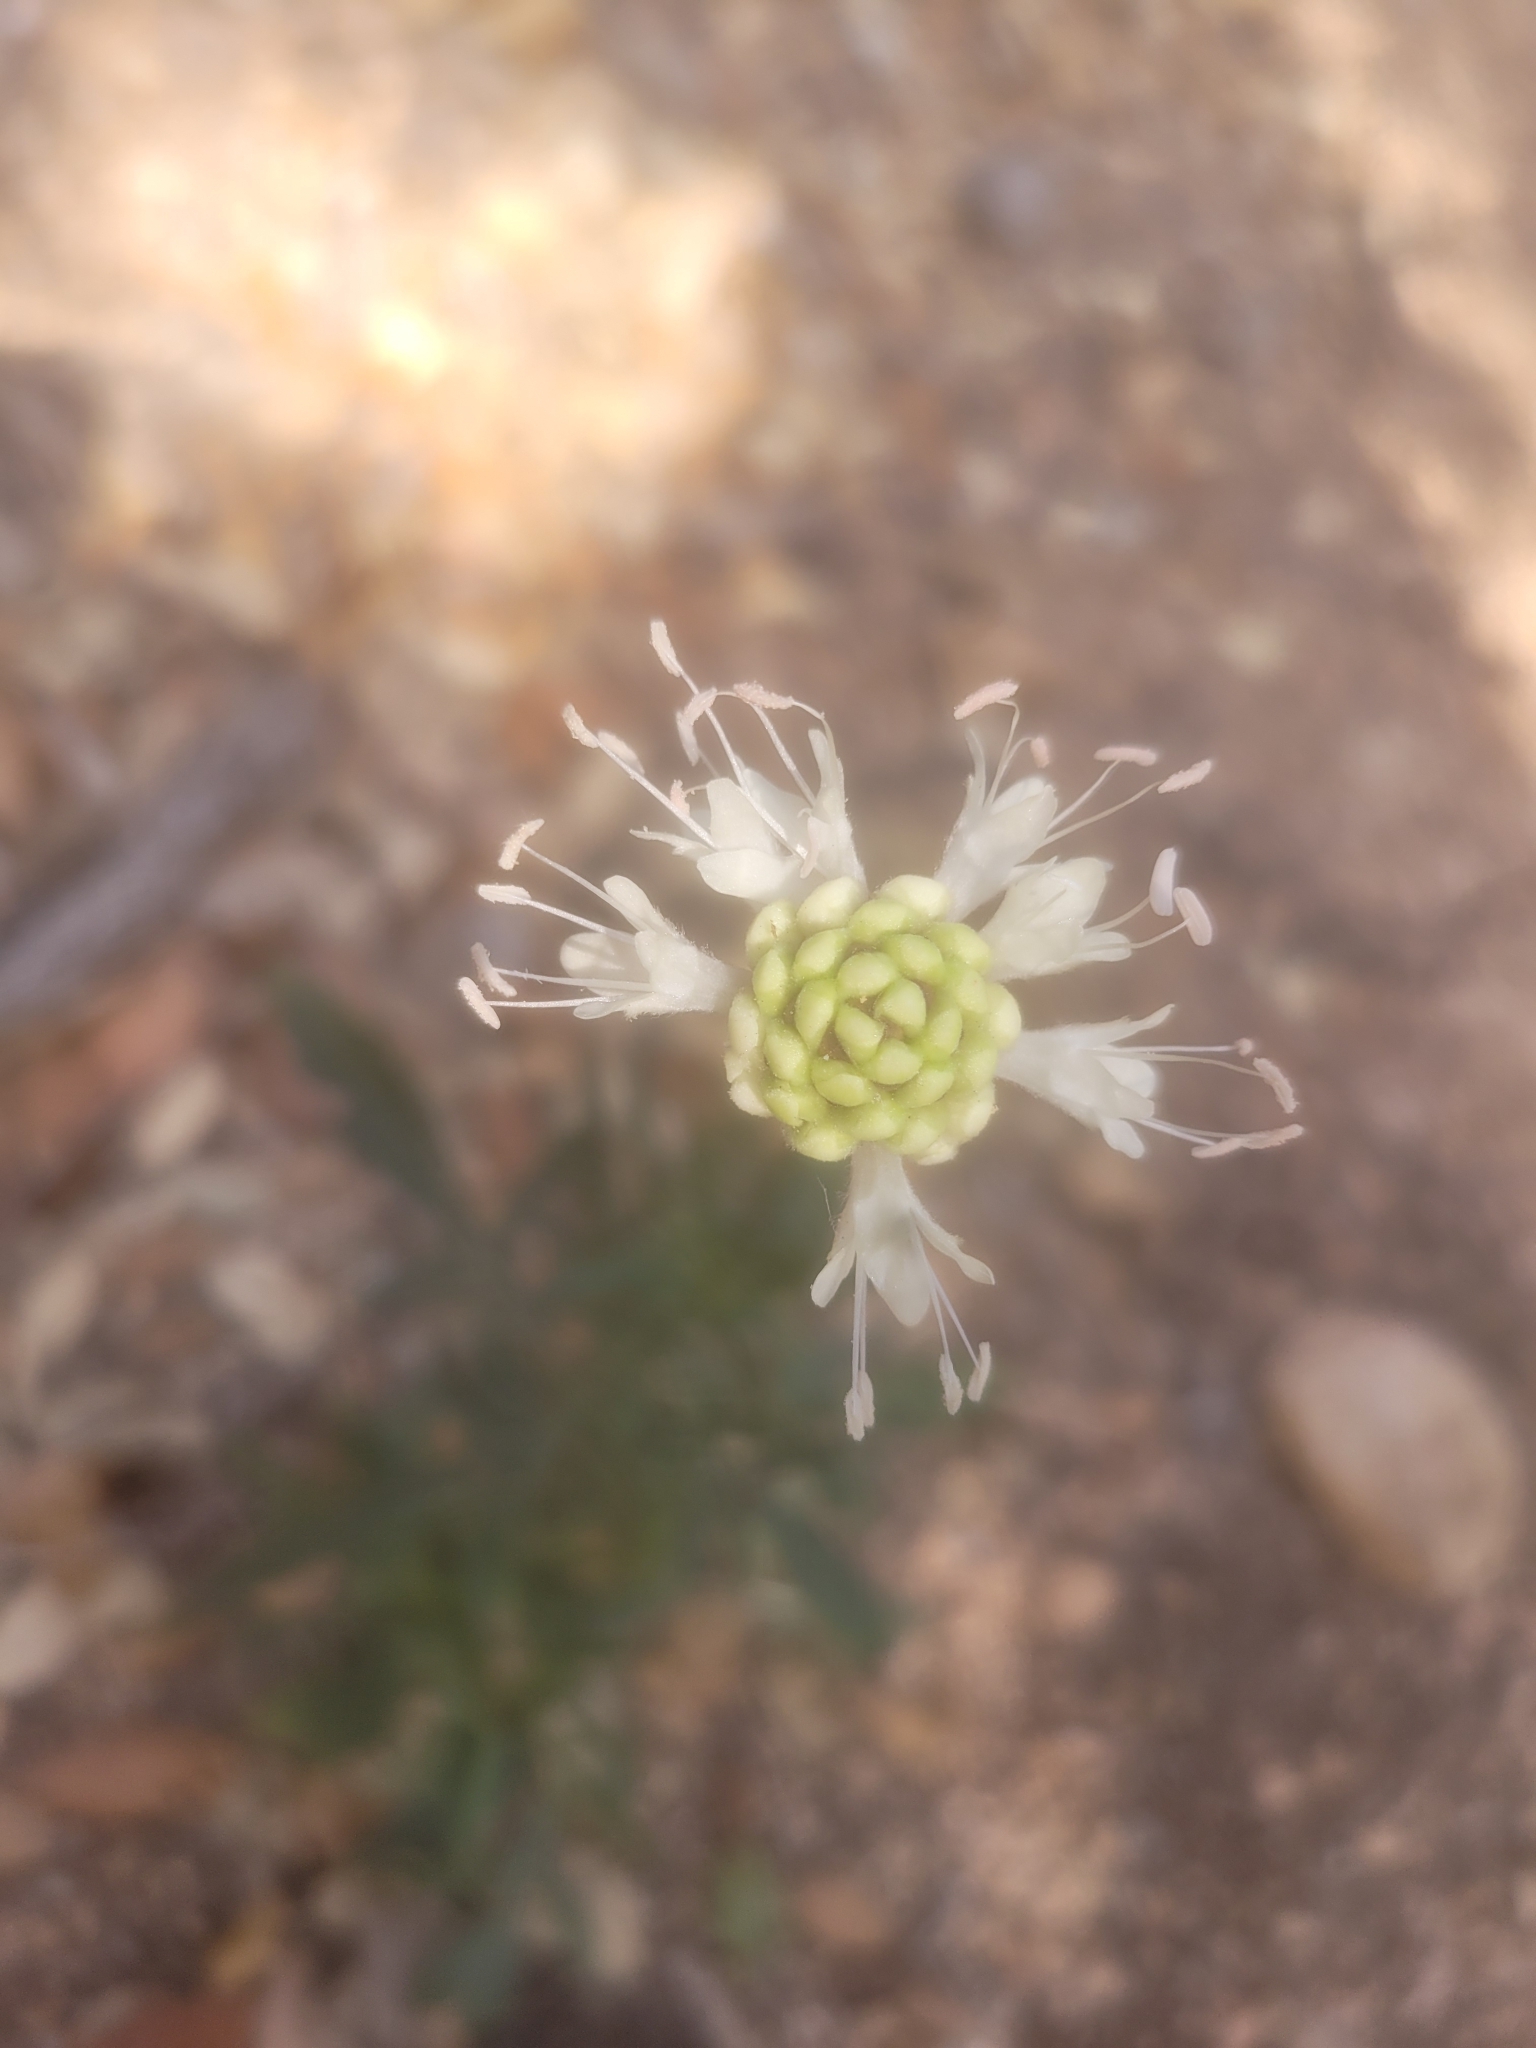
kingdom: Plantae
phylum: Tracheophyta
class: Magnoliopsida
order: Dipsacales
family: Caprifoliaceae
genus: Cephalaria
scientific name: Cephalaria leucantha
